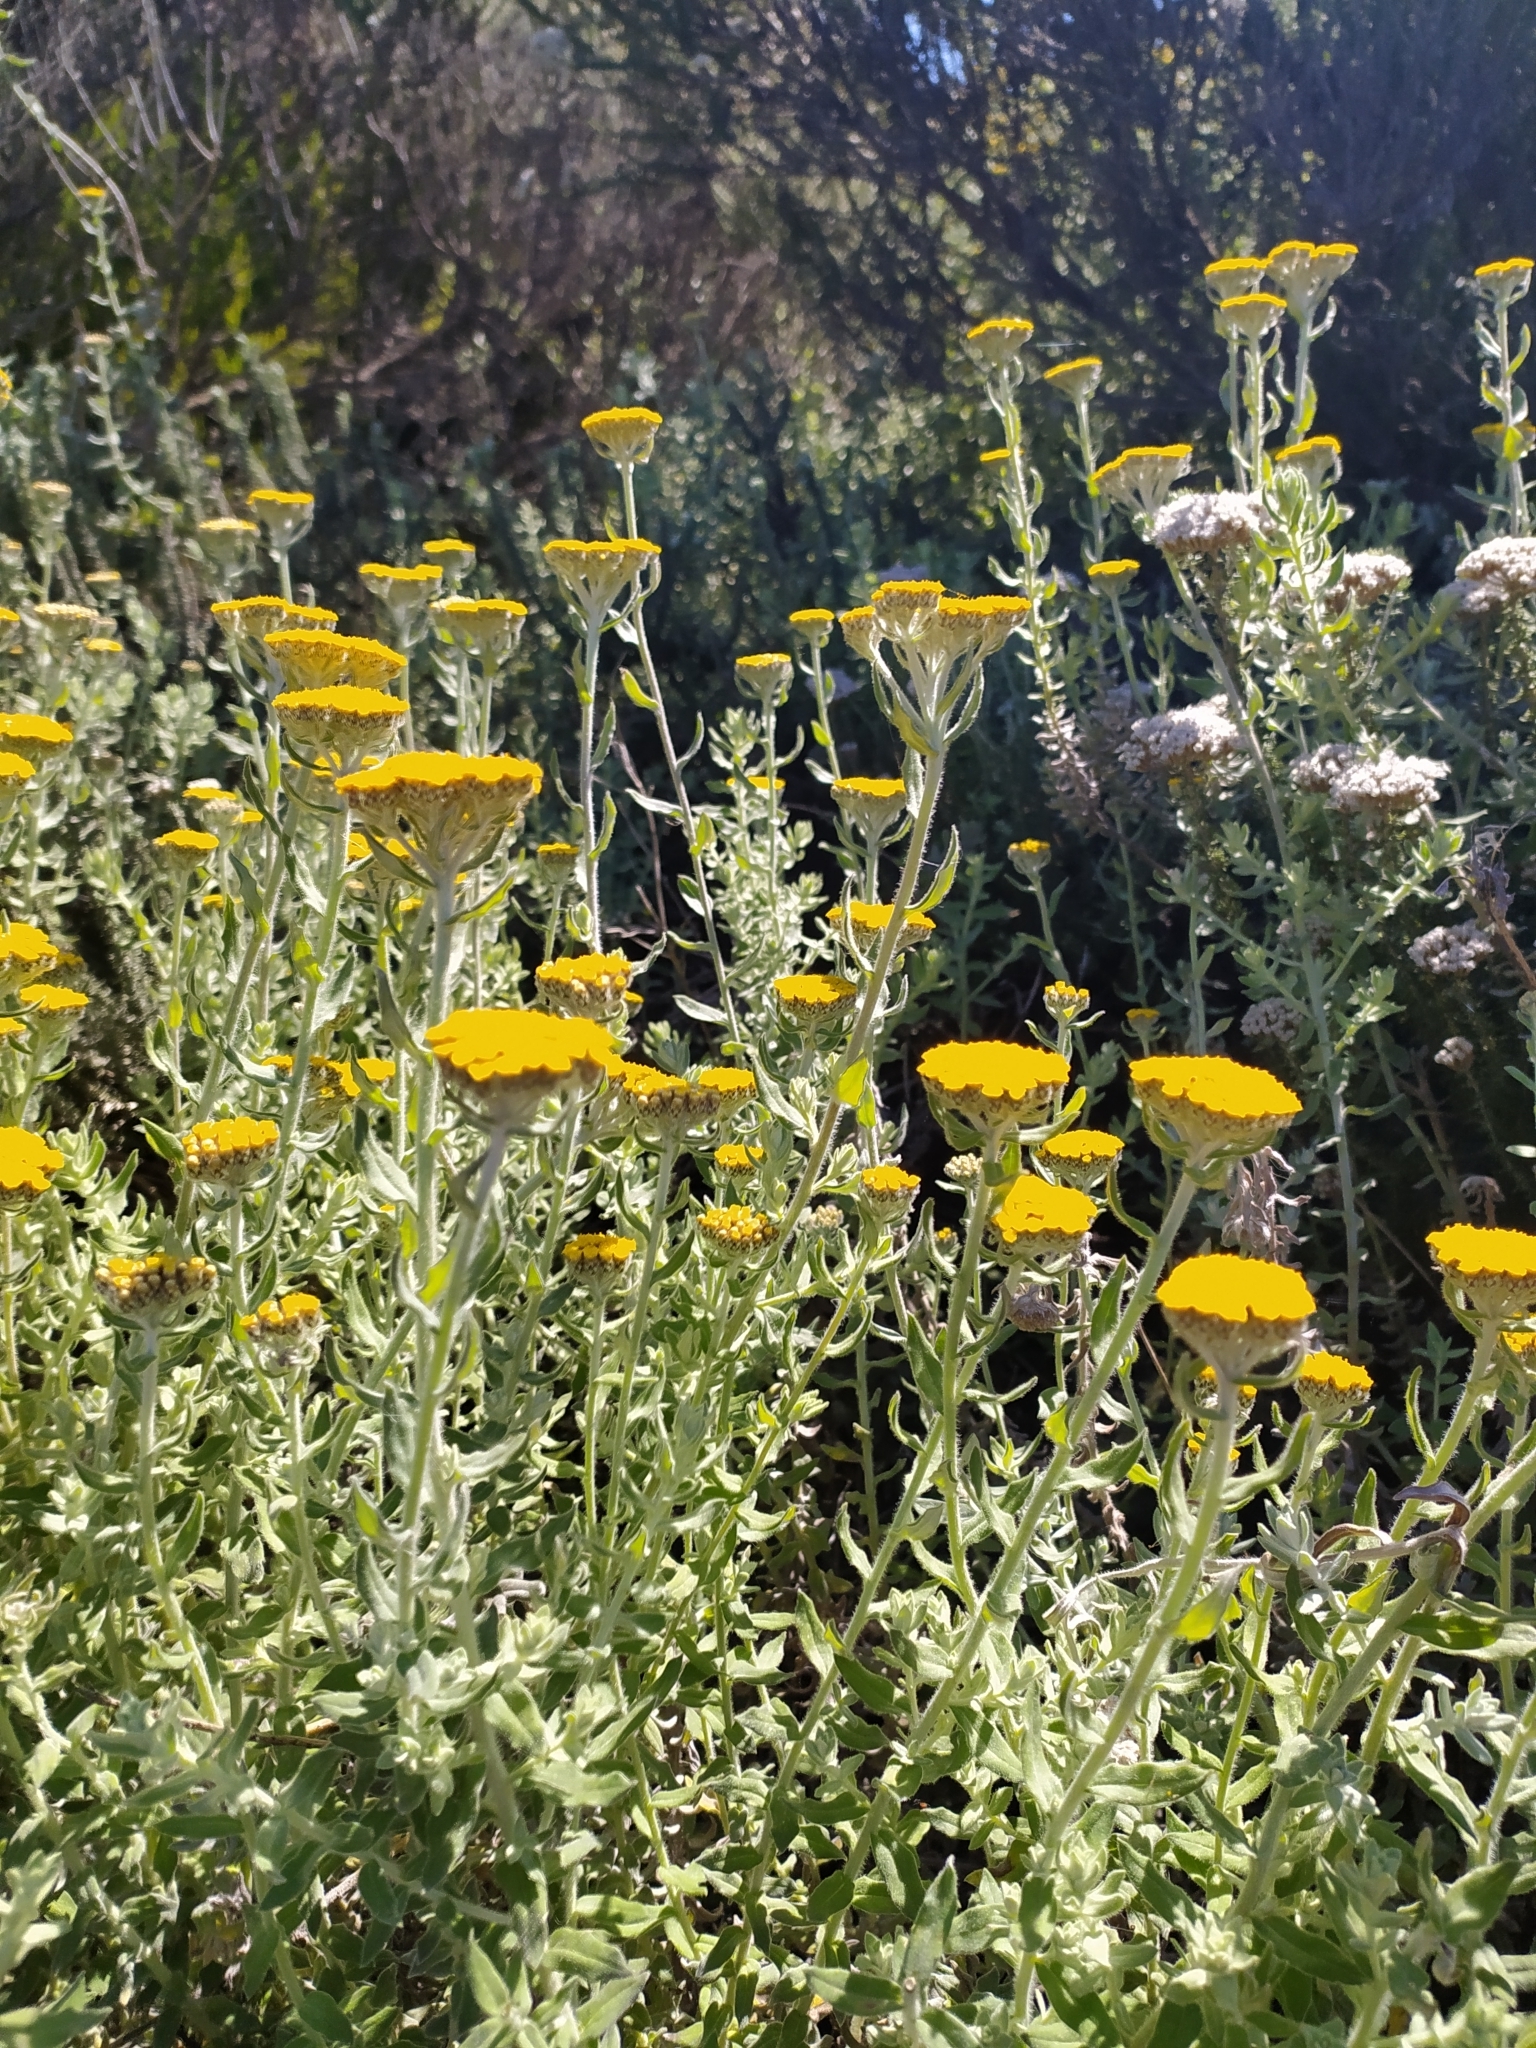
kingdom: Plantae
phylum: Tracheophyta
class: Magnoliopsida
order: Asterales
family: Asteraceae
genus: Helichrysum
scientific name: Helichrysum dasyanthum
